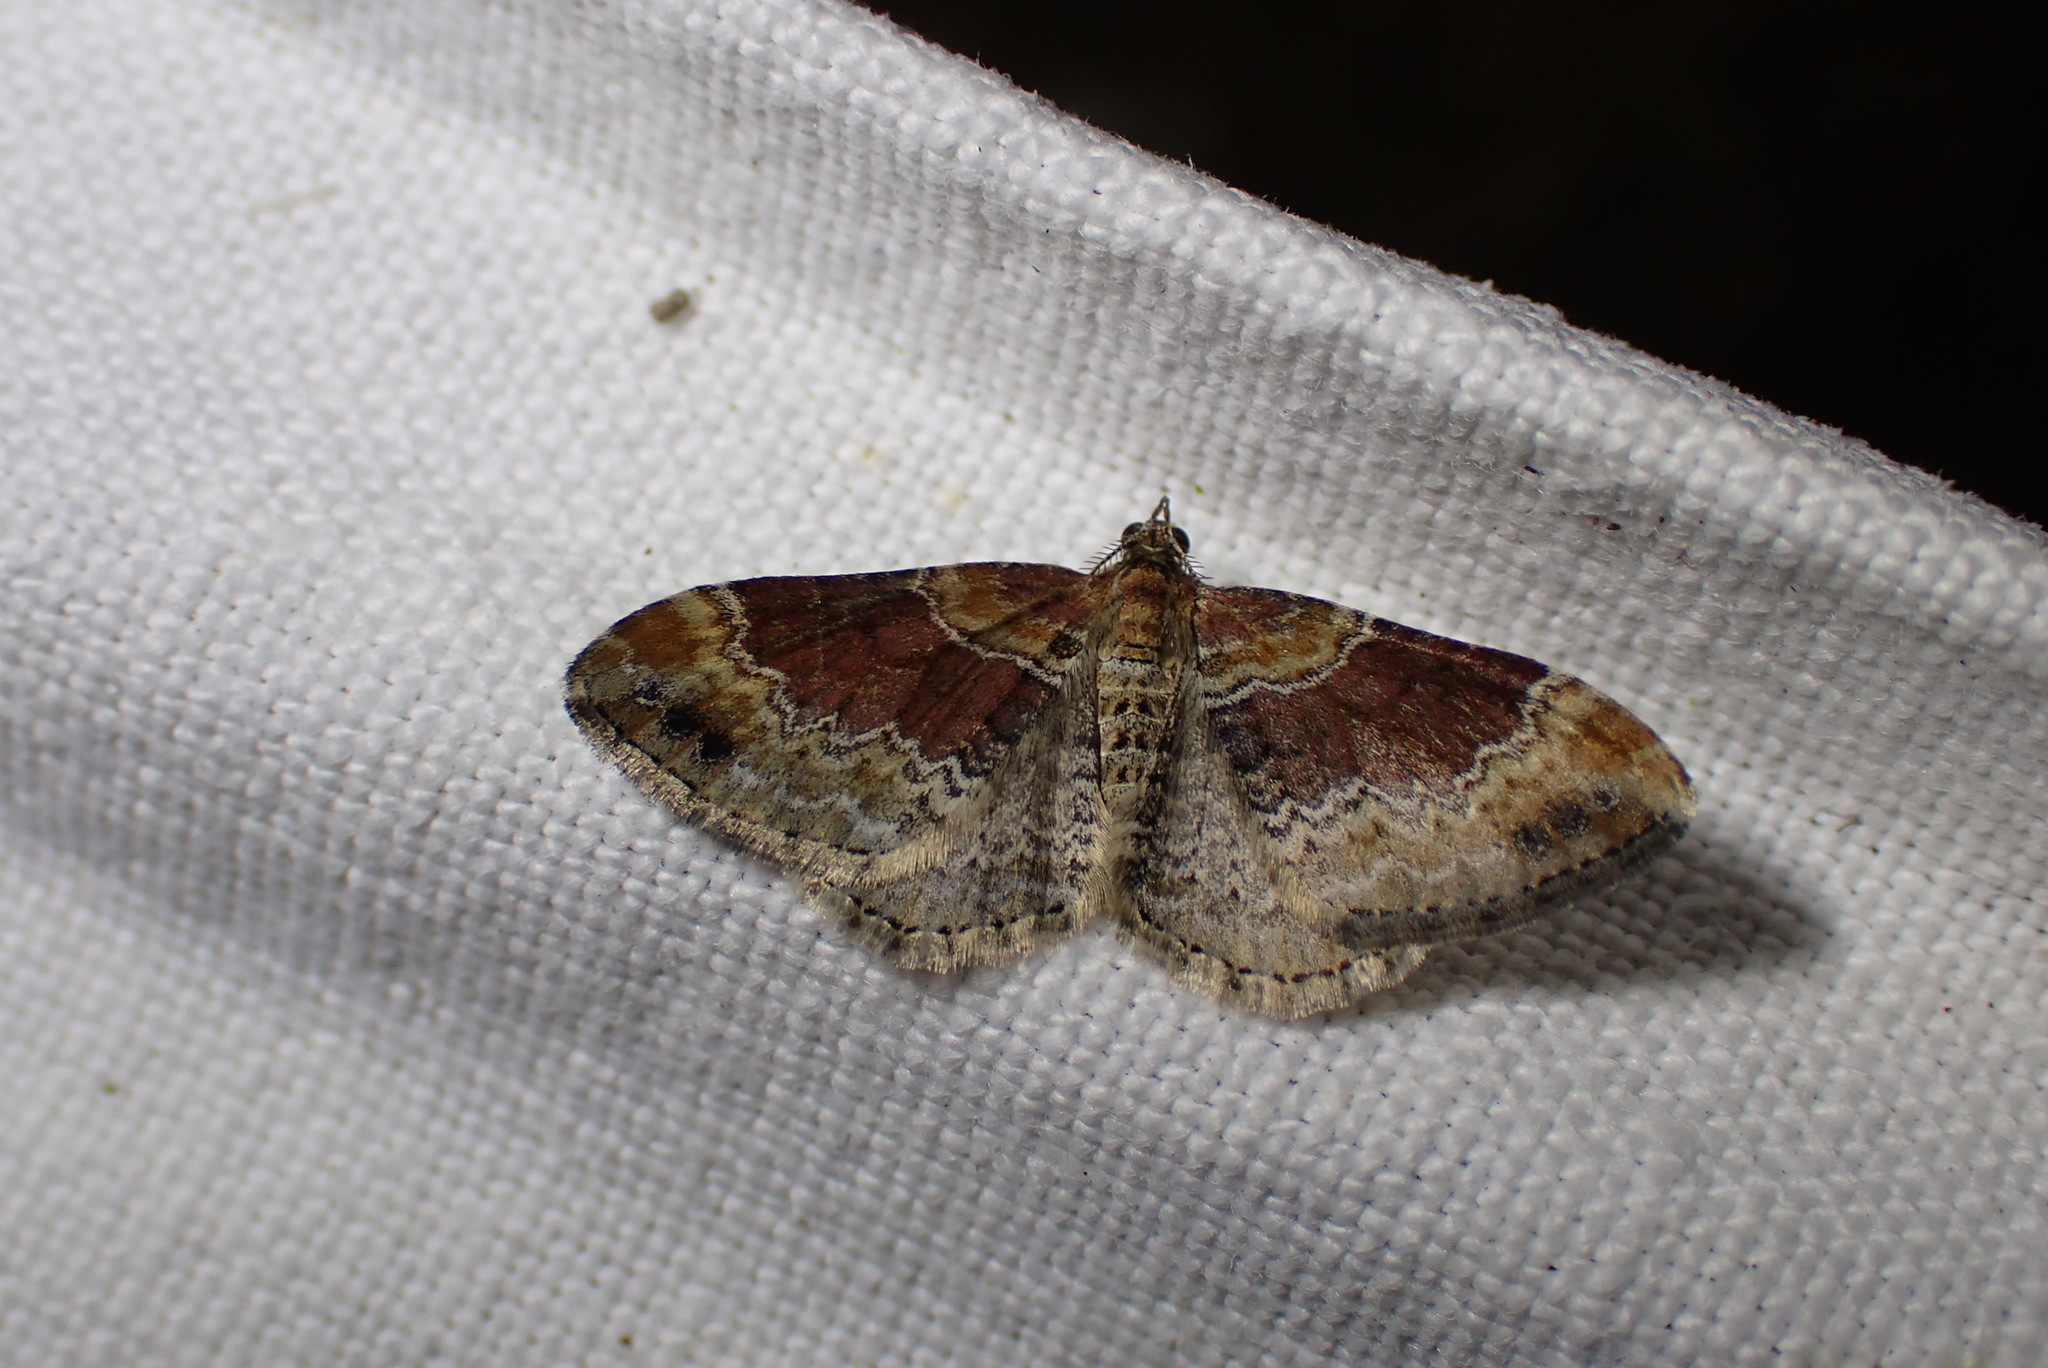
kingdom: Animalia
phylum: Arthropoda
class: Insecta
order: Lepidoptera
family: Geometridae
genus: Xanthorhoe
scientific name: Xanthorhoe spadicearia
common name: Red twin-spot carpet
